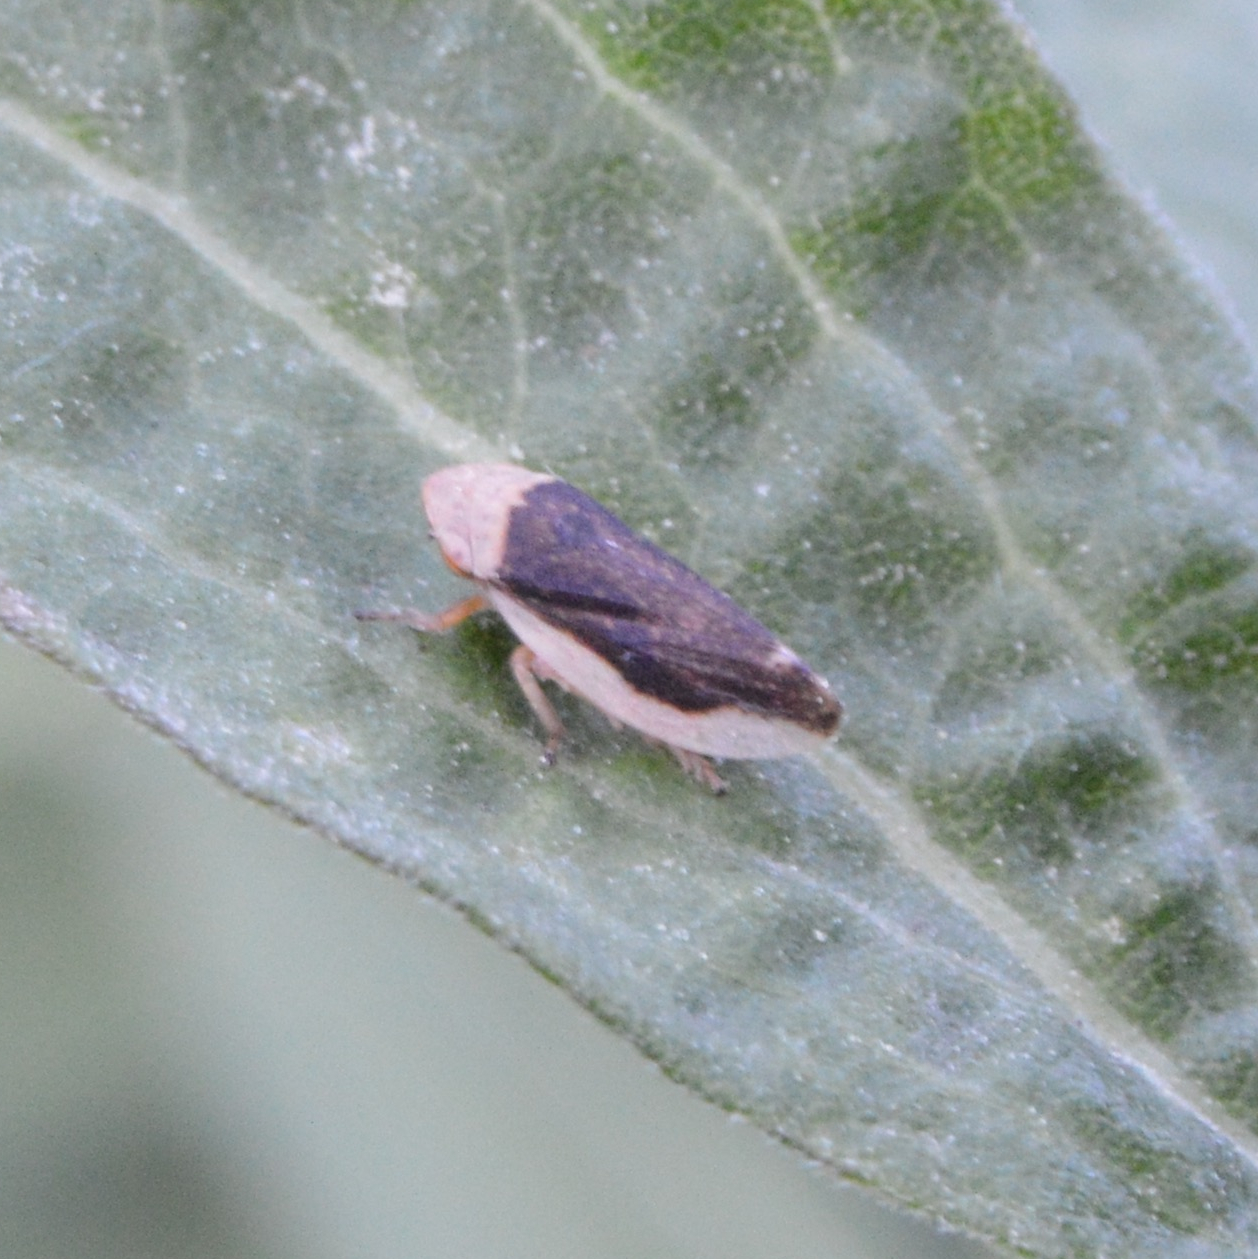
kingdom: Animalia
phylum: Arthropoda
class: Insecta
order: Hemiptera
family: Aphrophoridae
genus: Philaenus
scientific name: Philaenus spumarius
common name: Meadow spittlebug
